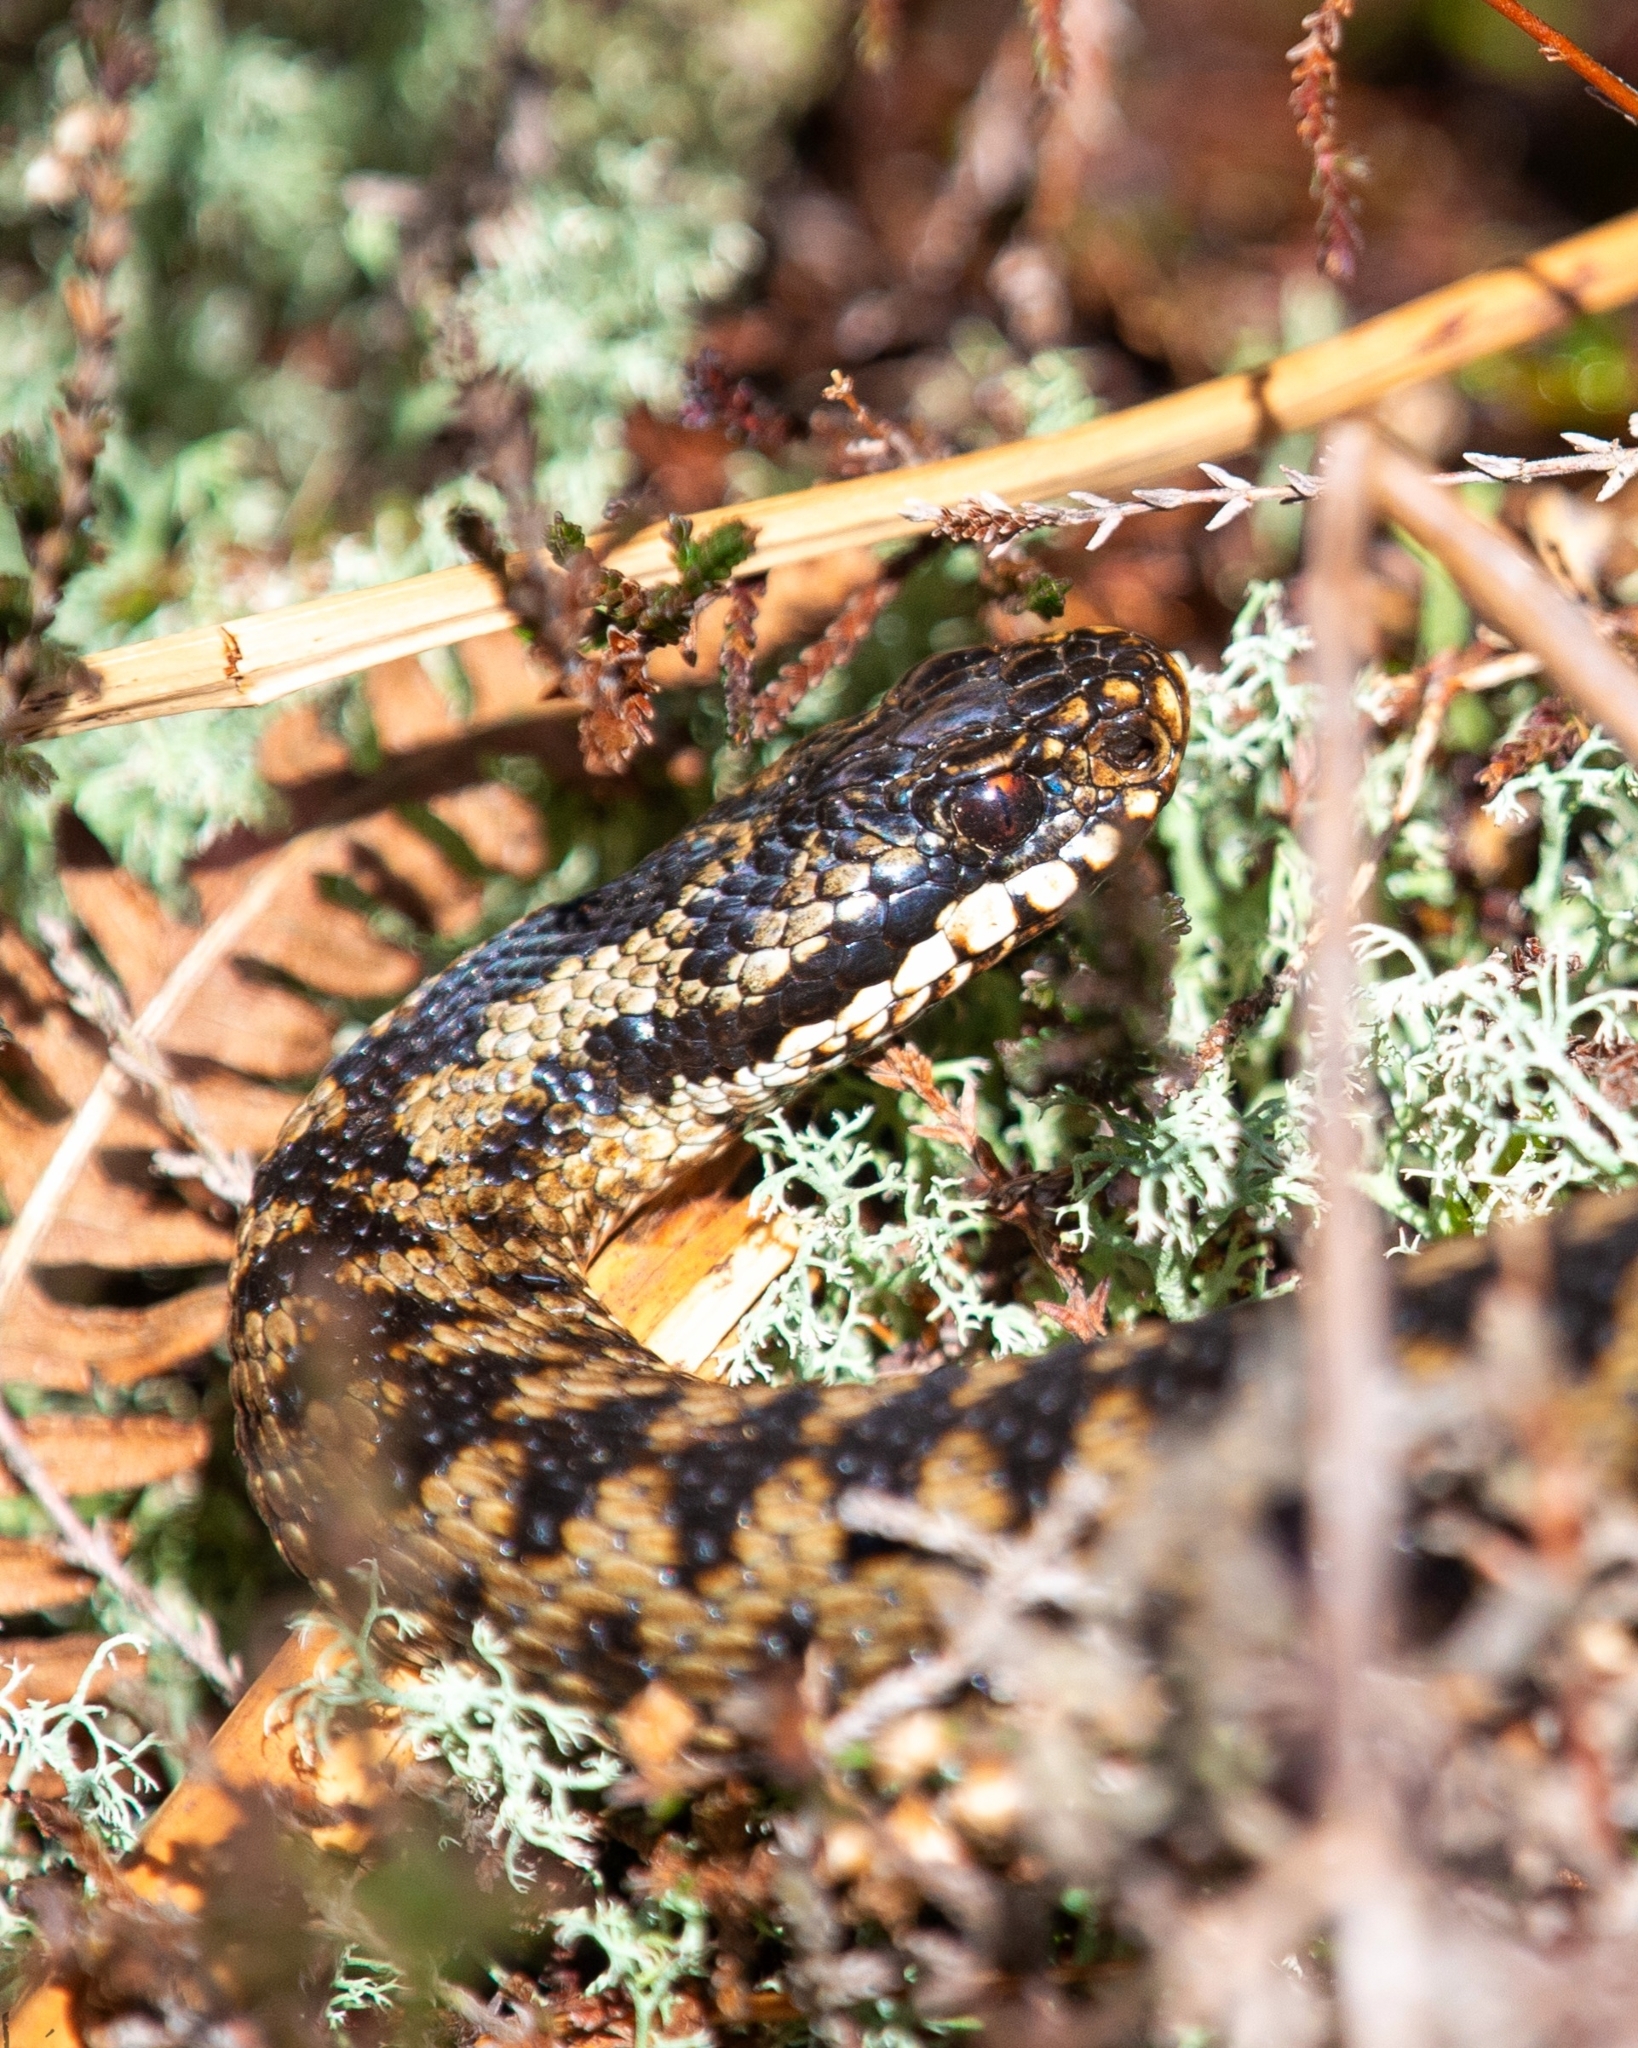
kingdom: Animalia
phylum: Chordata
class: Squamata
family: Viperidae
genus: Vipera
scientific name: Vipera berus
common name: Adder
